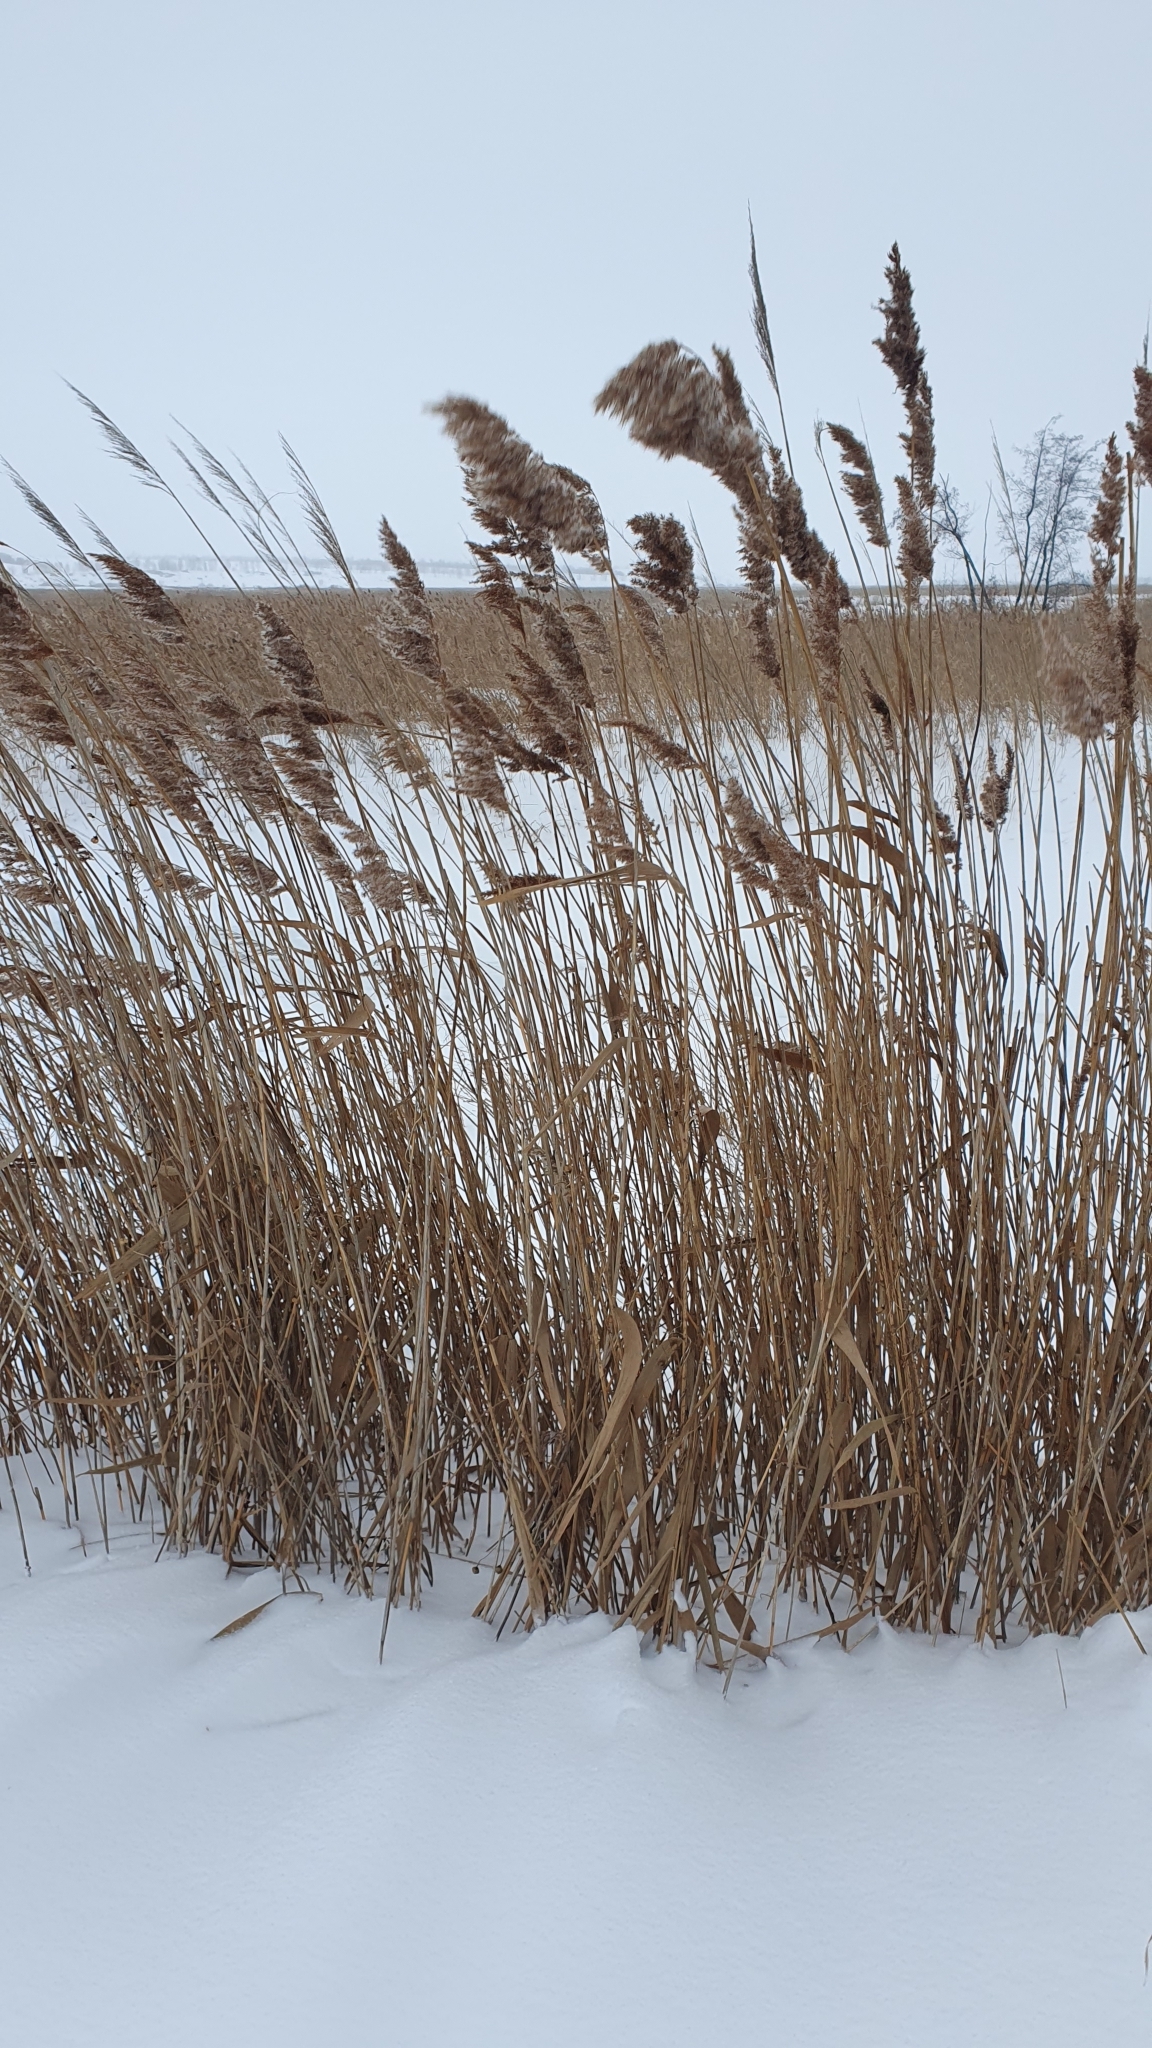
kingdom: Plantae
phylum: Tracheophyta
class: Liliopsida
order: Poales
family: Poaceae
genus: Phragmites
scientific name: Phragmites australis
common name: Common reed
